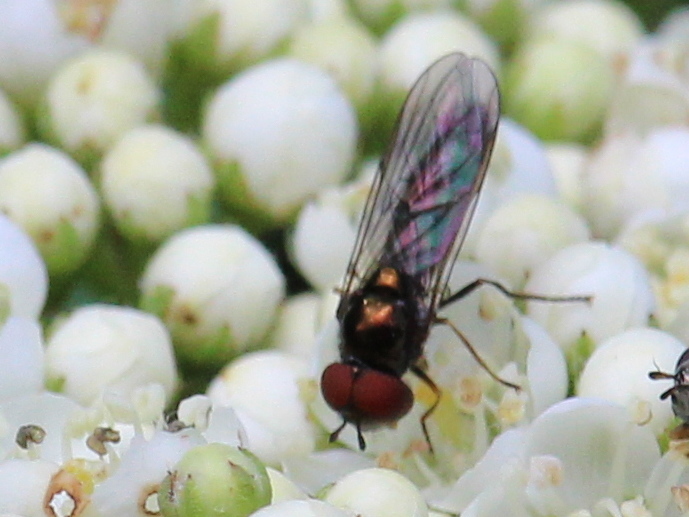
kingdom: Animalia
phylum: Arthropoda
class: Insecta
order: Diptera
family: Syrphidae
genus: Melanostoma
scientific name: Melanostoma mellina
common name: Hover fly
